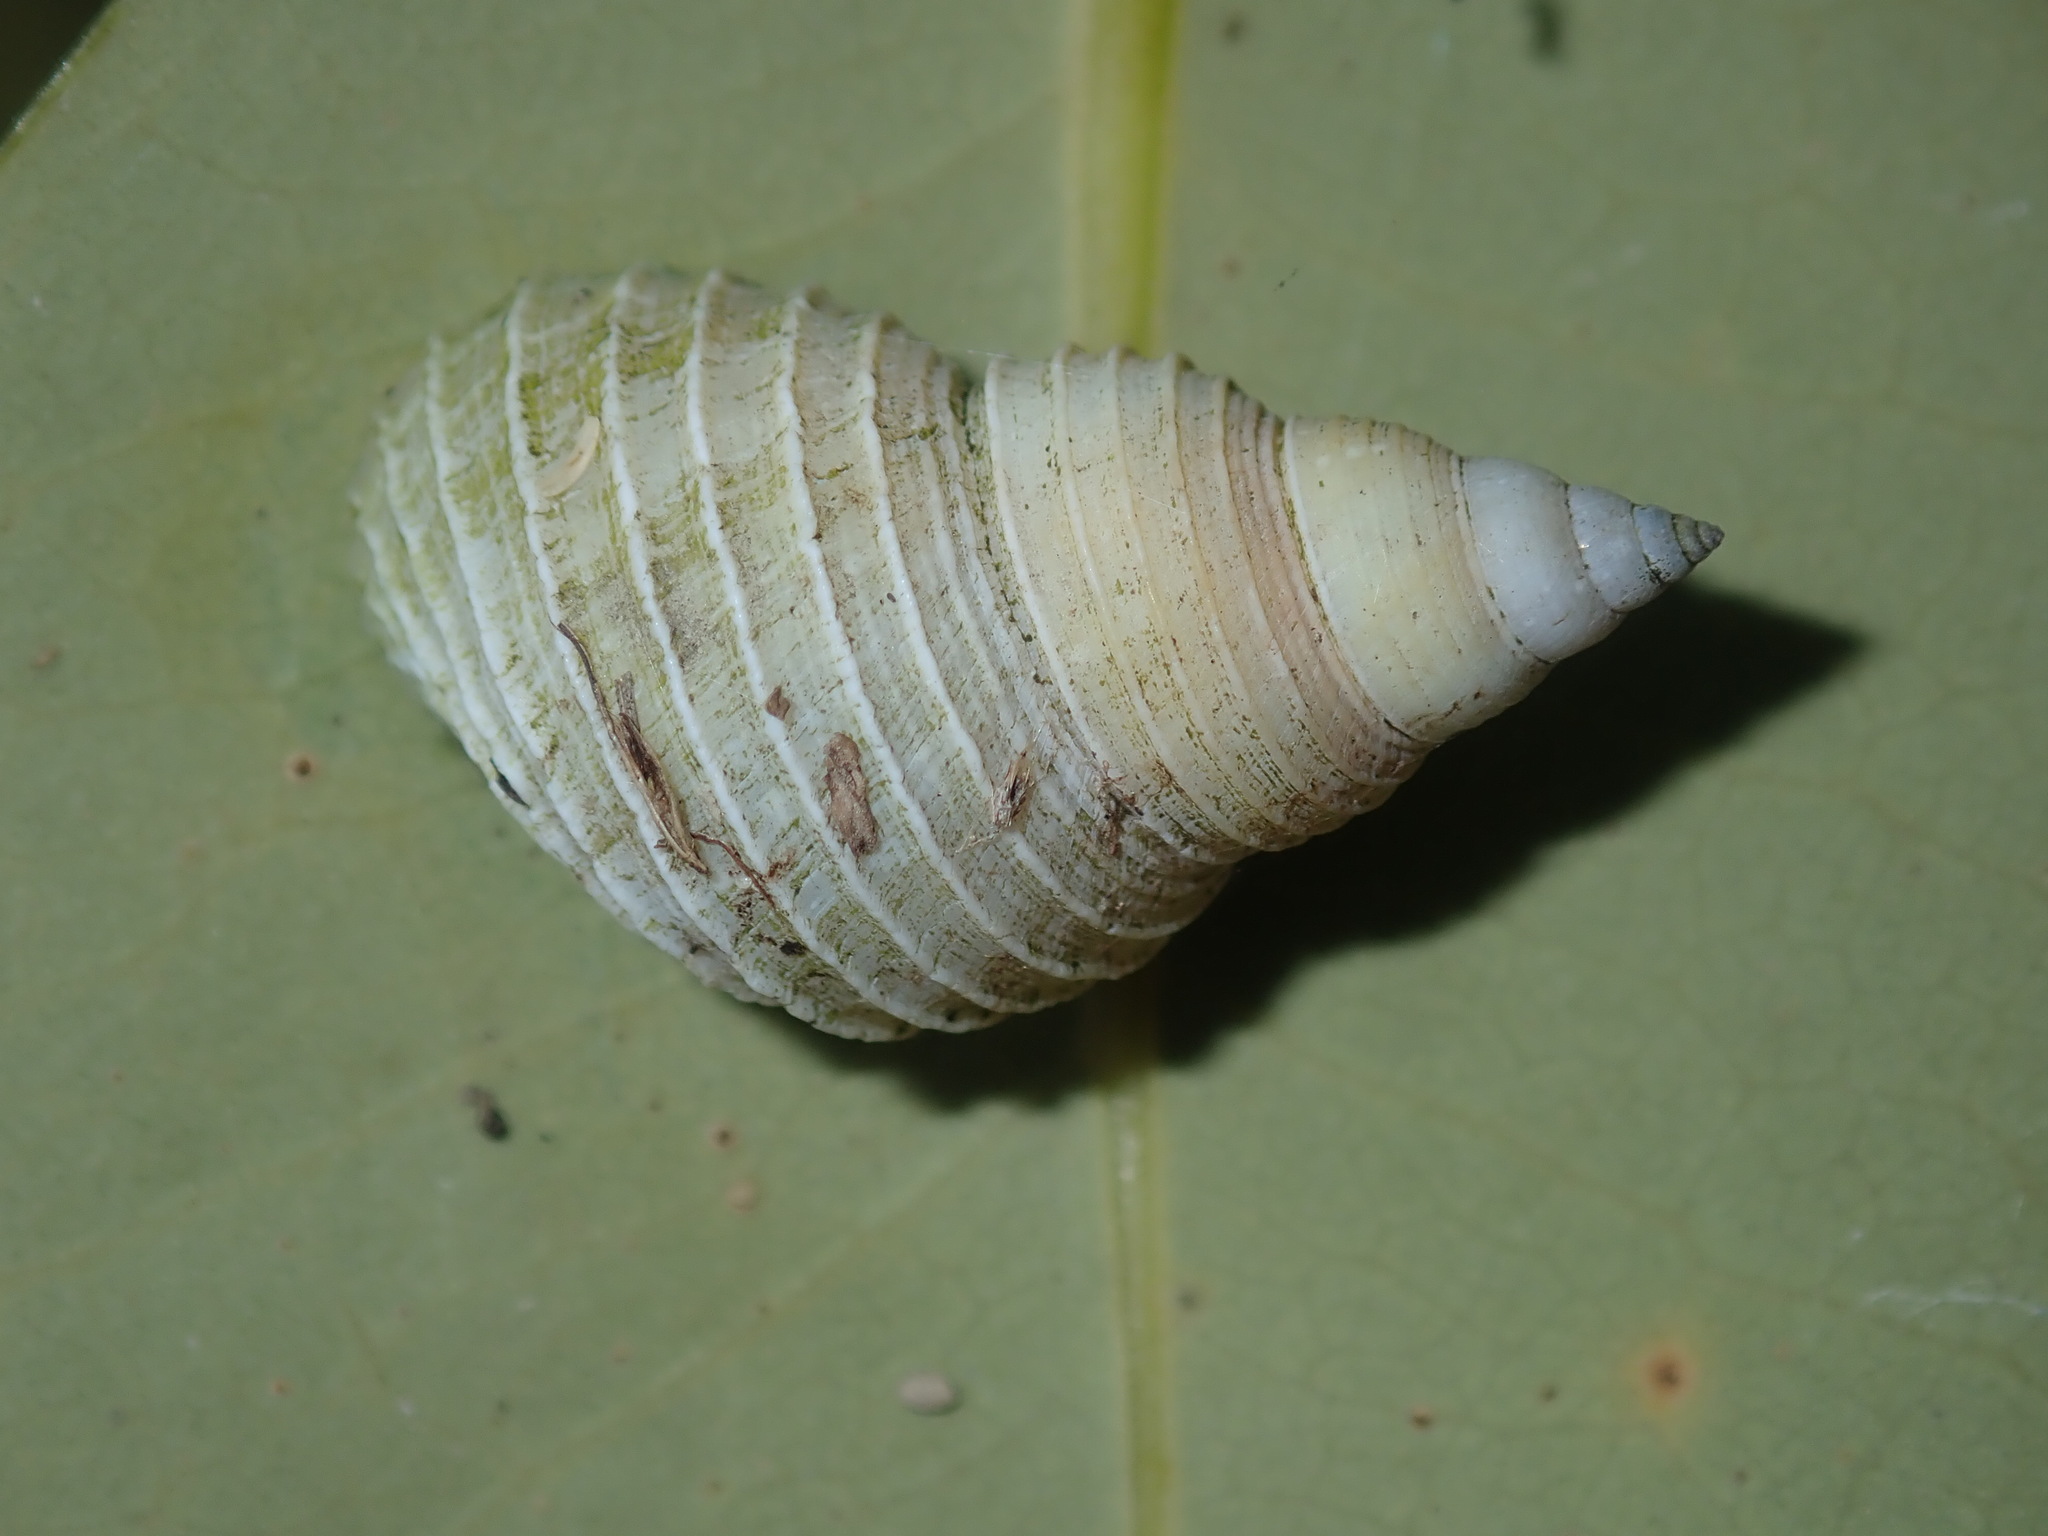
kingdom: Animalia
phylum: Mollusca
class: Gastropoda
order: Littorinimorpha
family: Littorinidae
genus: Littoraria
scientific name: Littoraria filosa
